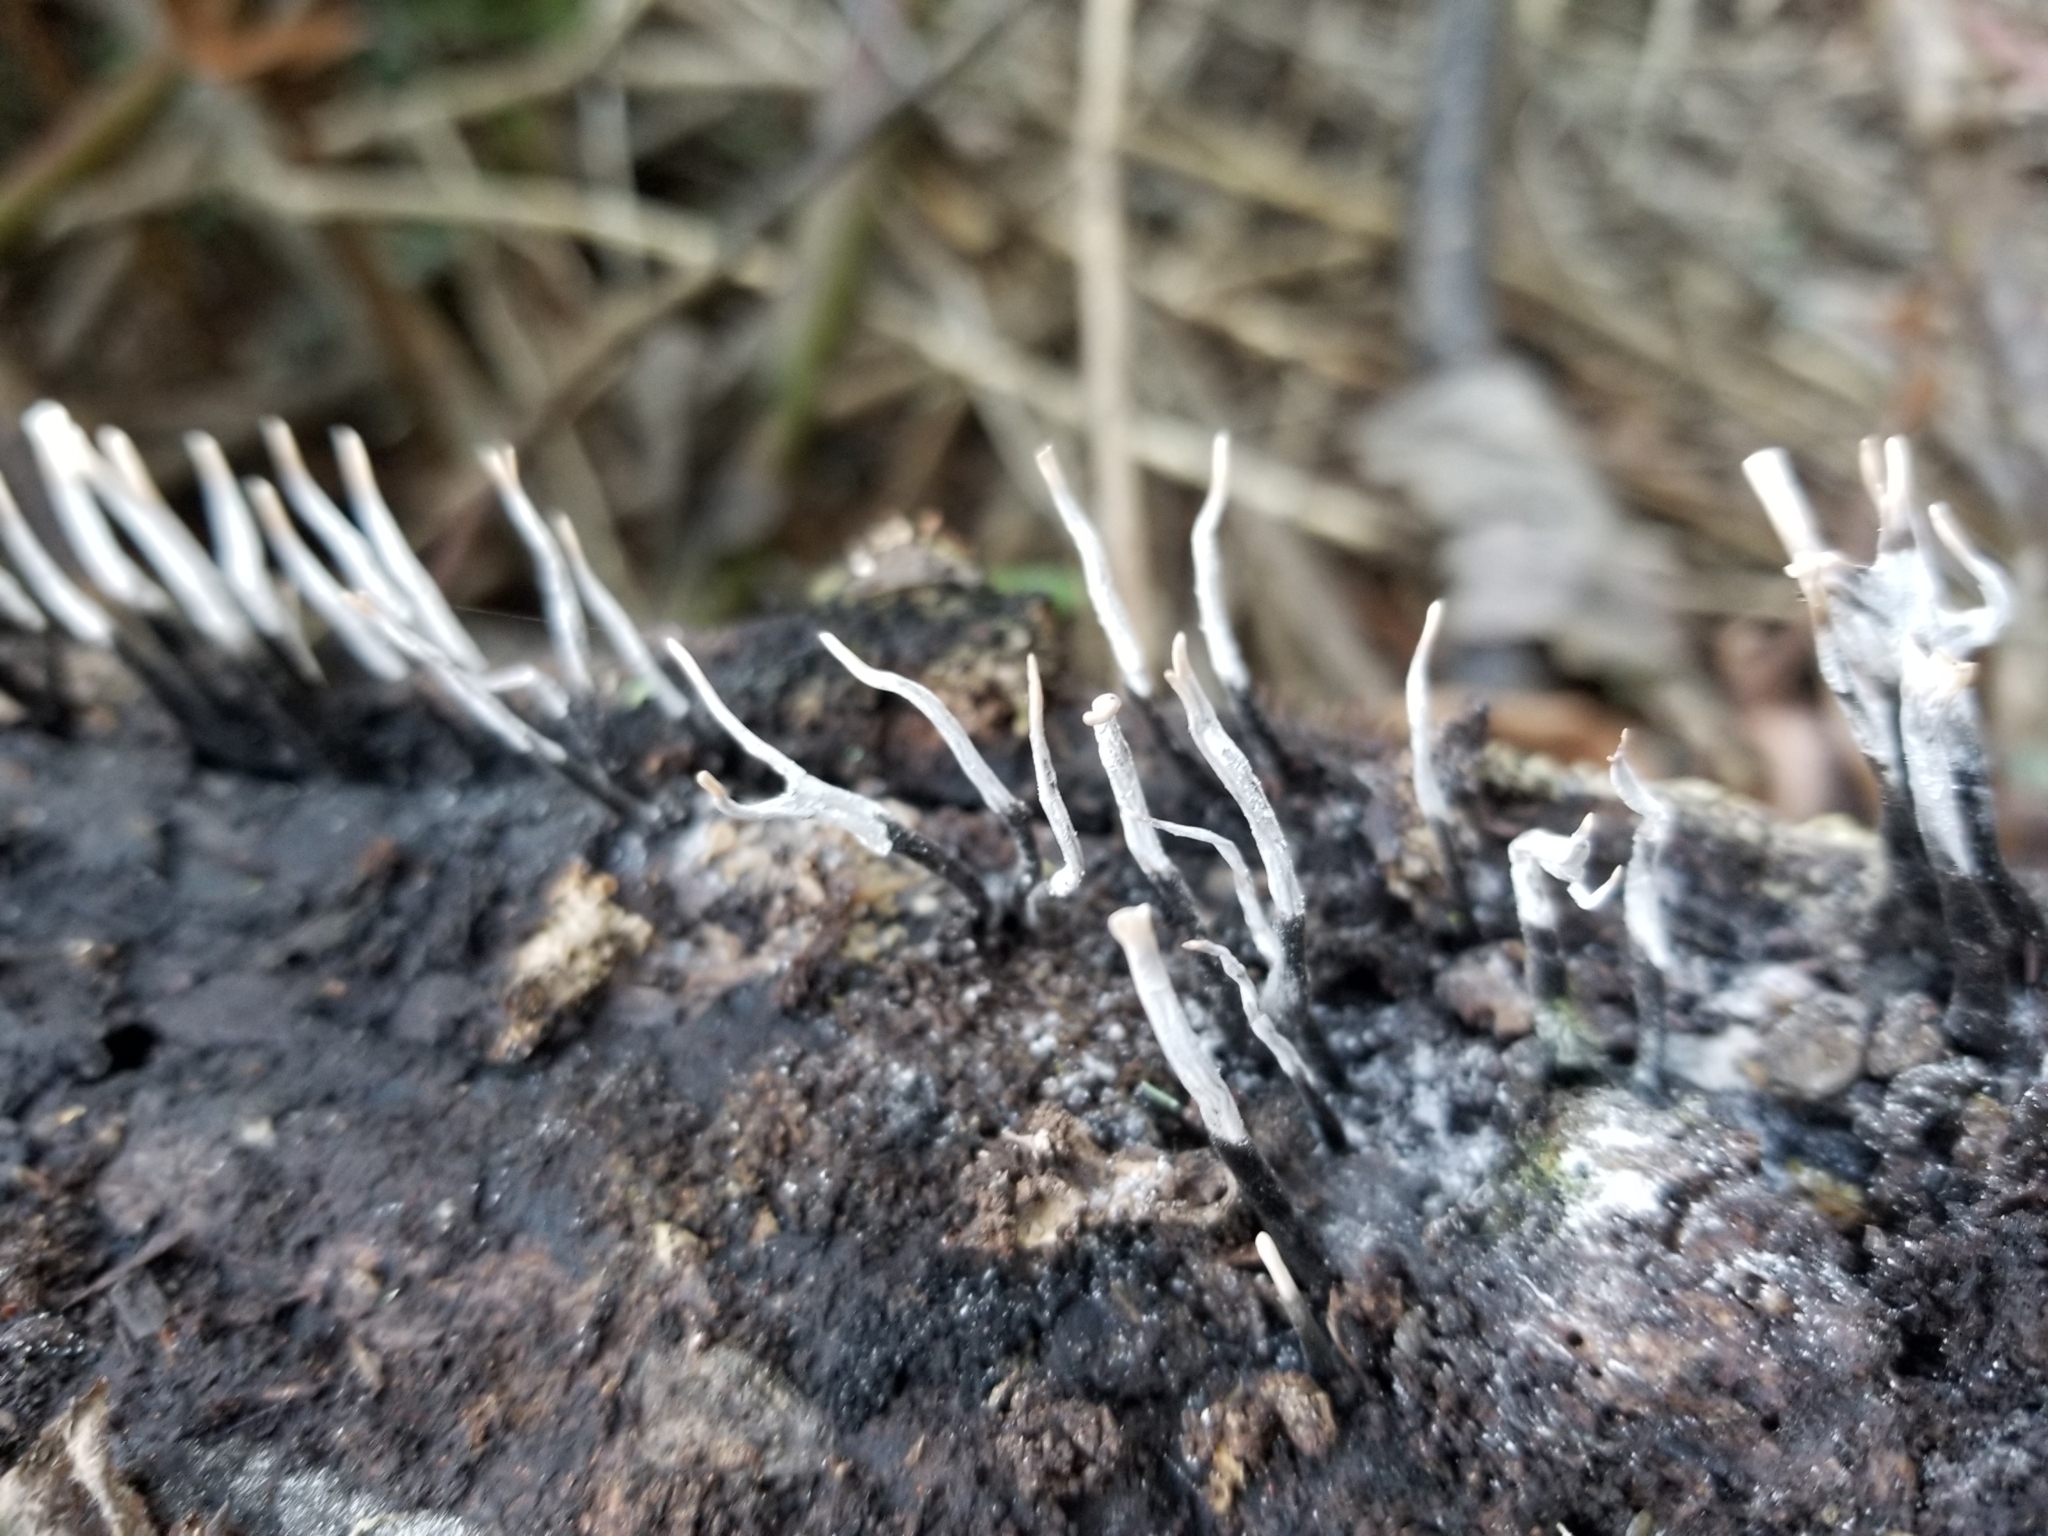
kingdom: Fungi
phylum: Ascomycota
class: Sordariomycetes
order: Xylariales
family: Xylariaceae
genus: Xylaria
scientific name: Xylaria hypoxylon
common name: Candle-snuff fungus
